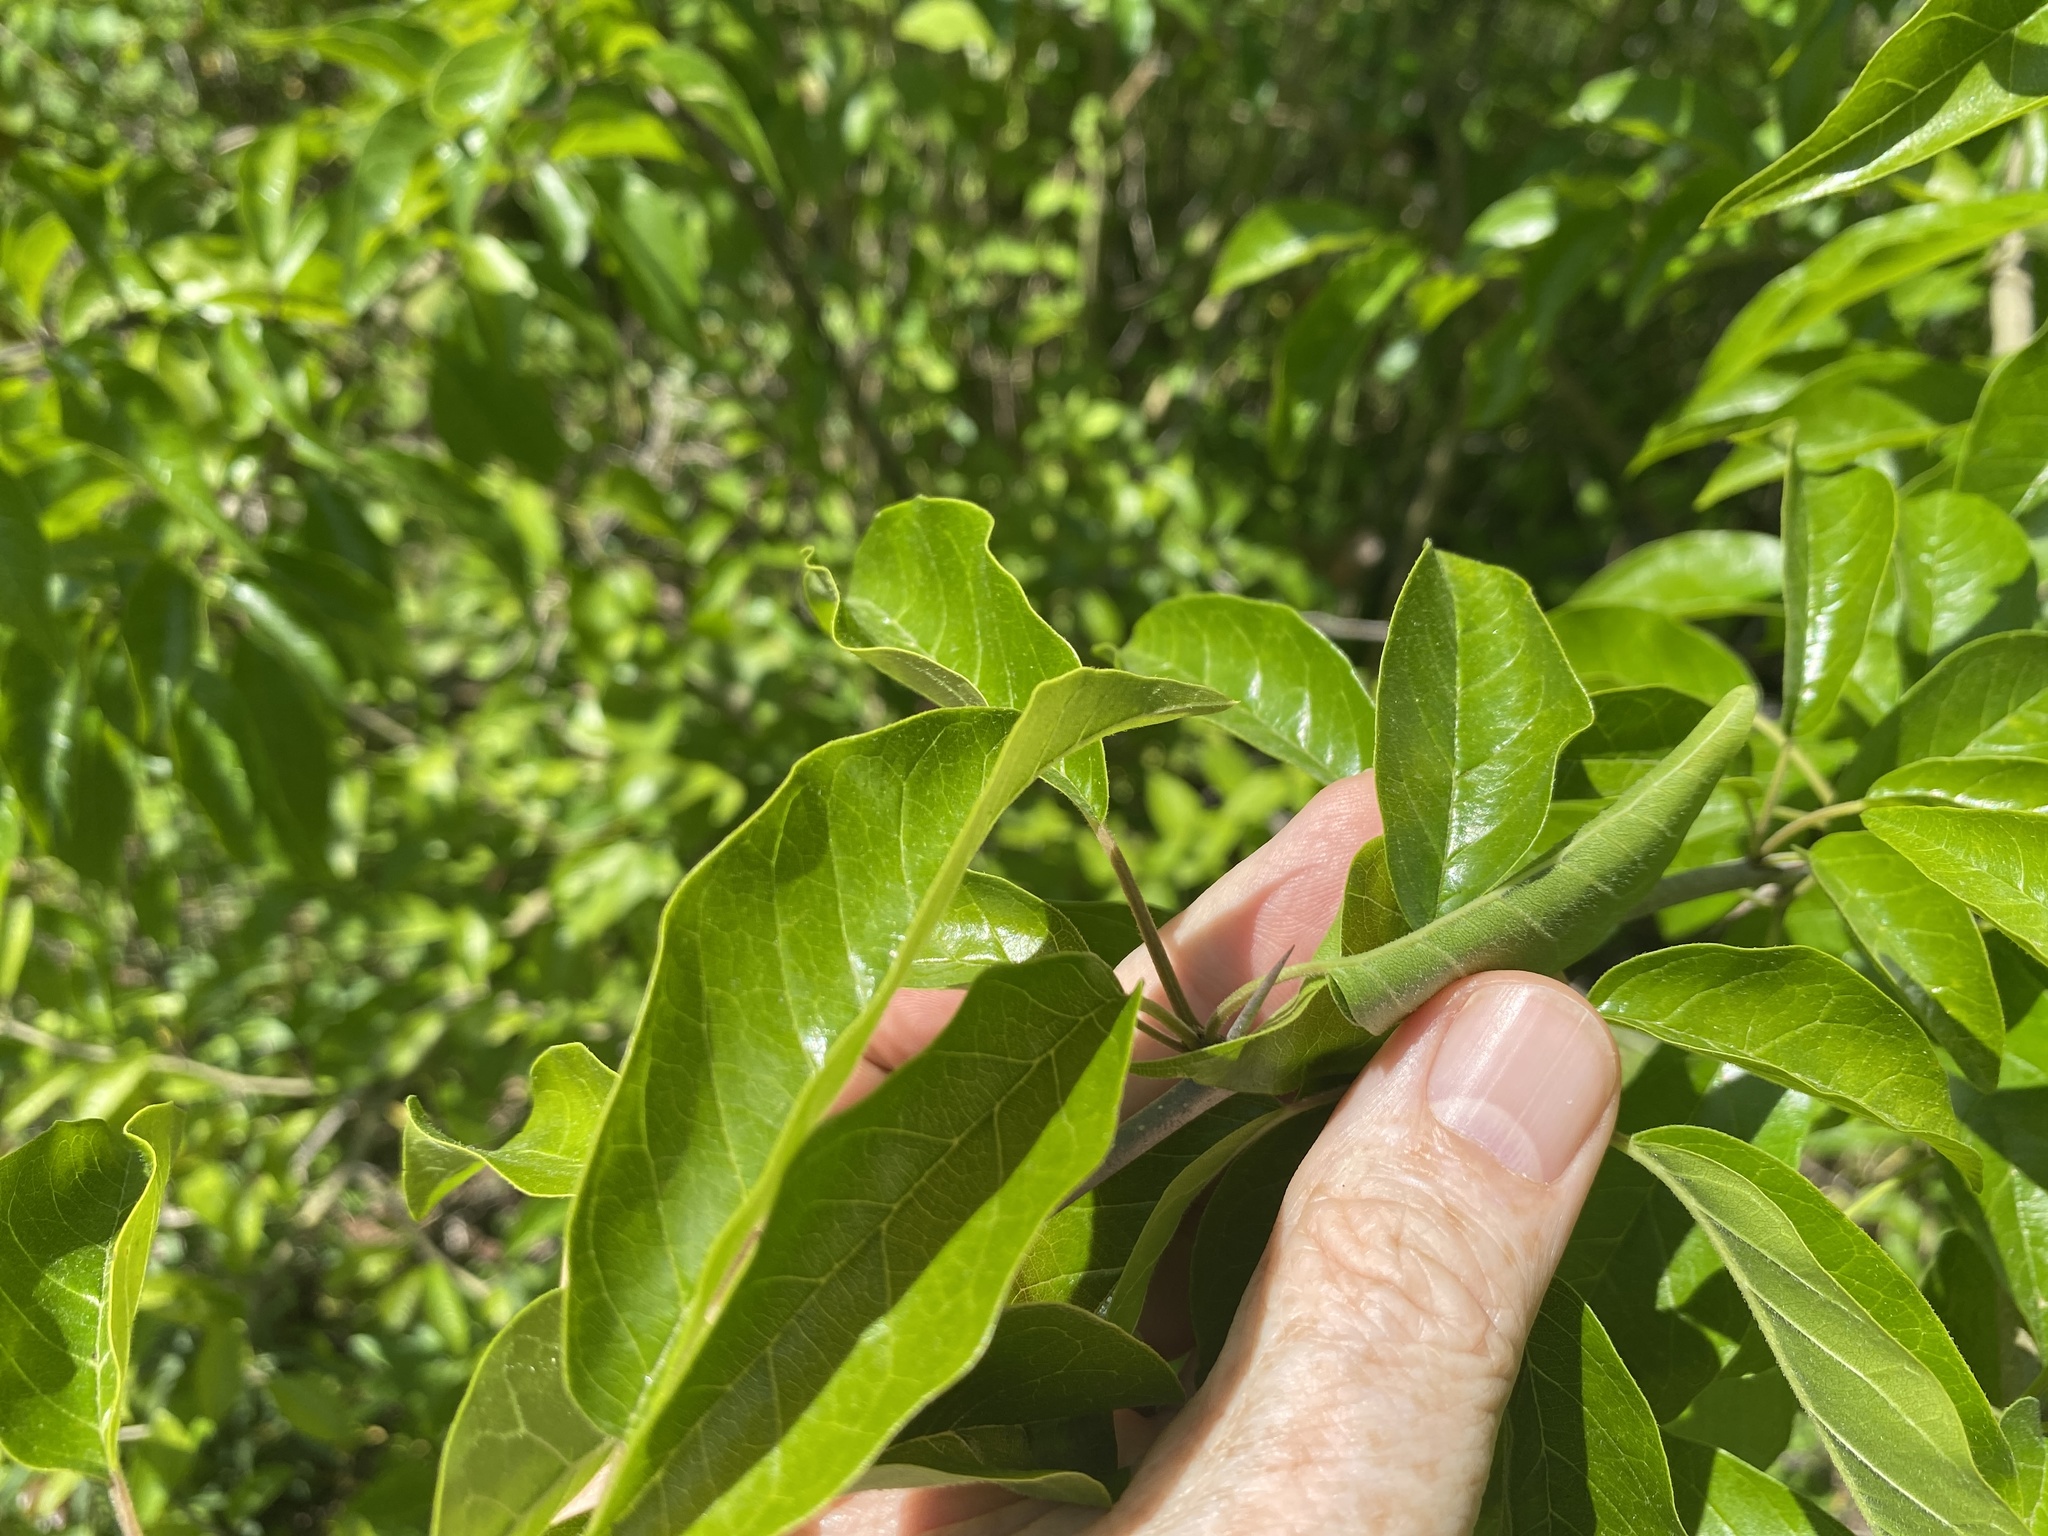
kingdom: Plantae
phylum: Tracheophyta
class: Magnoliopsida
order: Rosales
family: Moraceae
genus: Maclura
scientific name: Maclura pomifera
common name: Osage-orange
